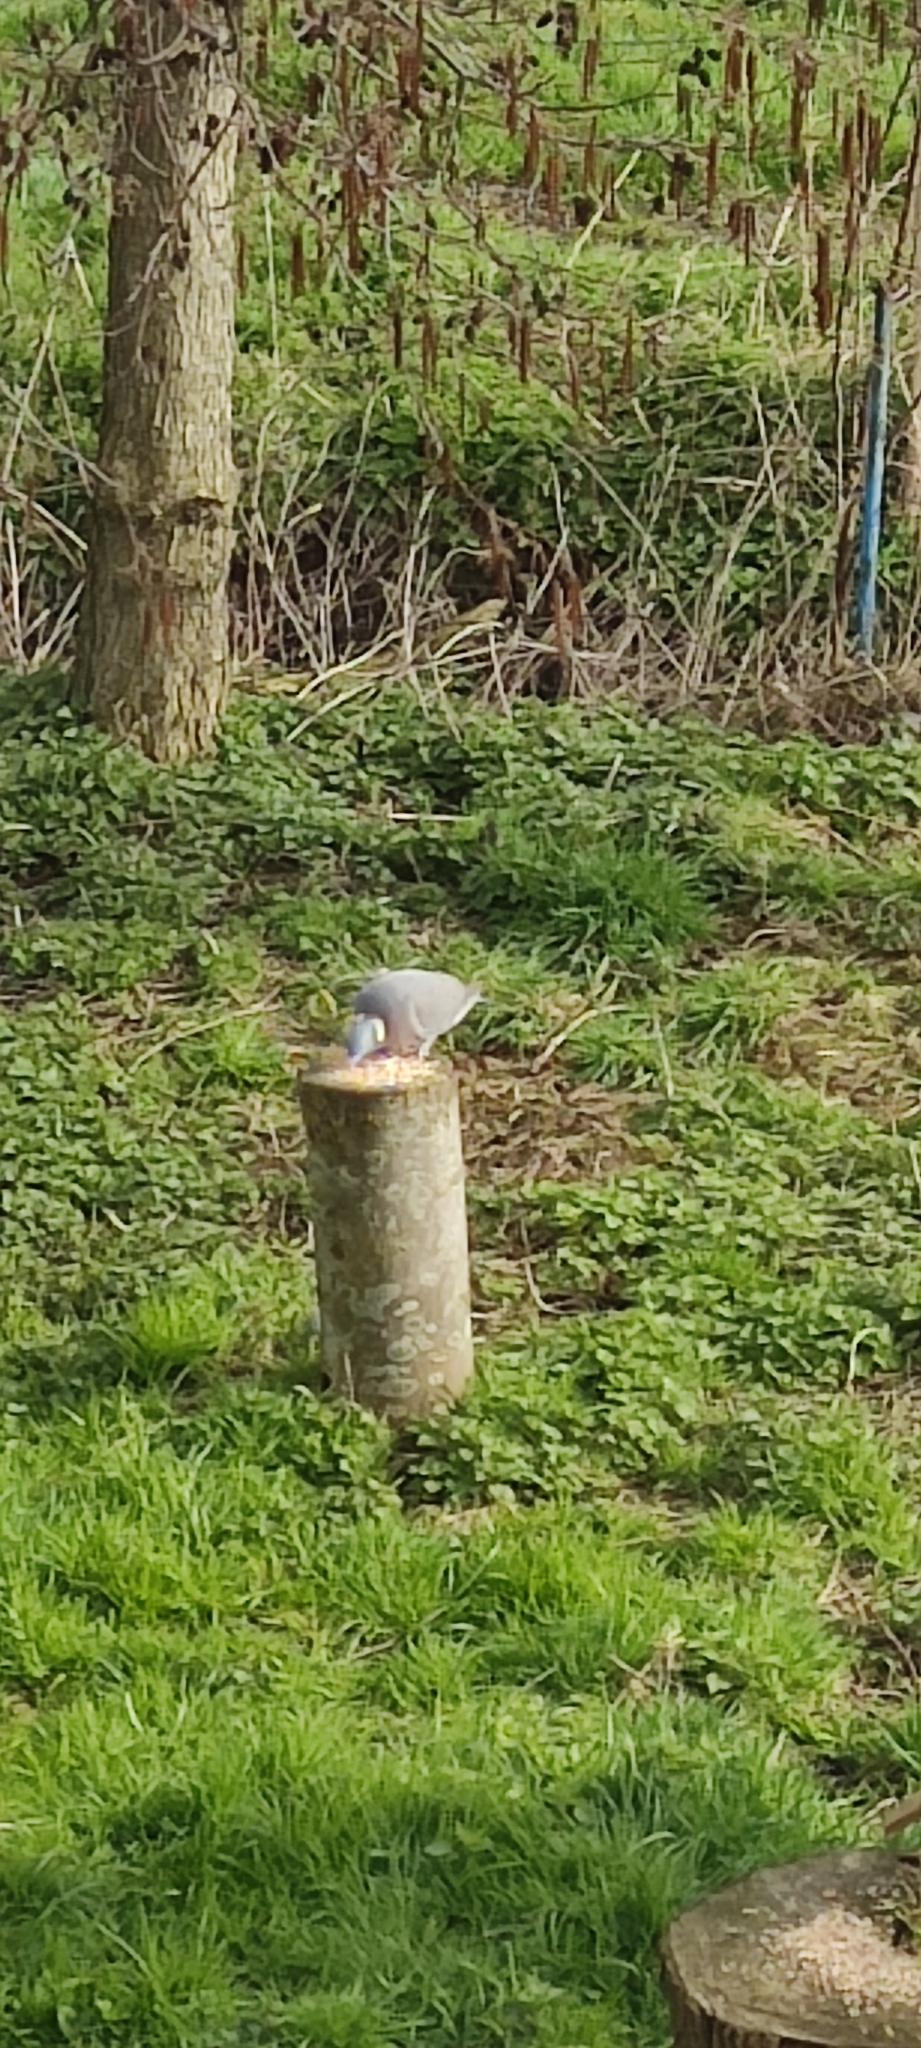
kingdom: Animalia
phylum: Chordata
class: Aves
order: Columbiformes
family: Columbidae
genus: Columba
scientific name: Columba palumbus
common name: Common wood pigeon
